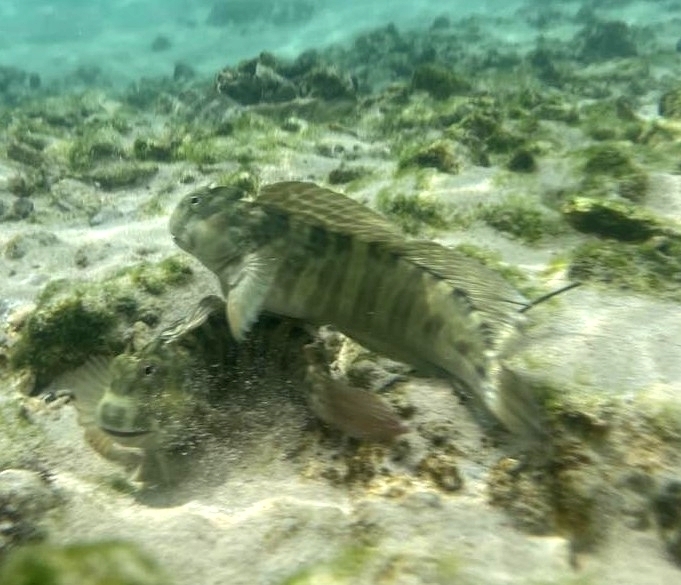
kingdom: Animalia
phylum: Chordata
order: Perciformes
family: Blenniidae
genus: Istiblennius
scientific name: Istiblennius edentulus
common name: Rippled rockskipper
